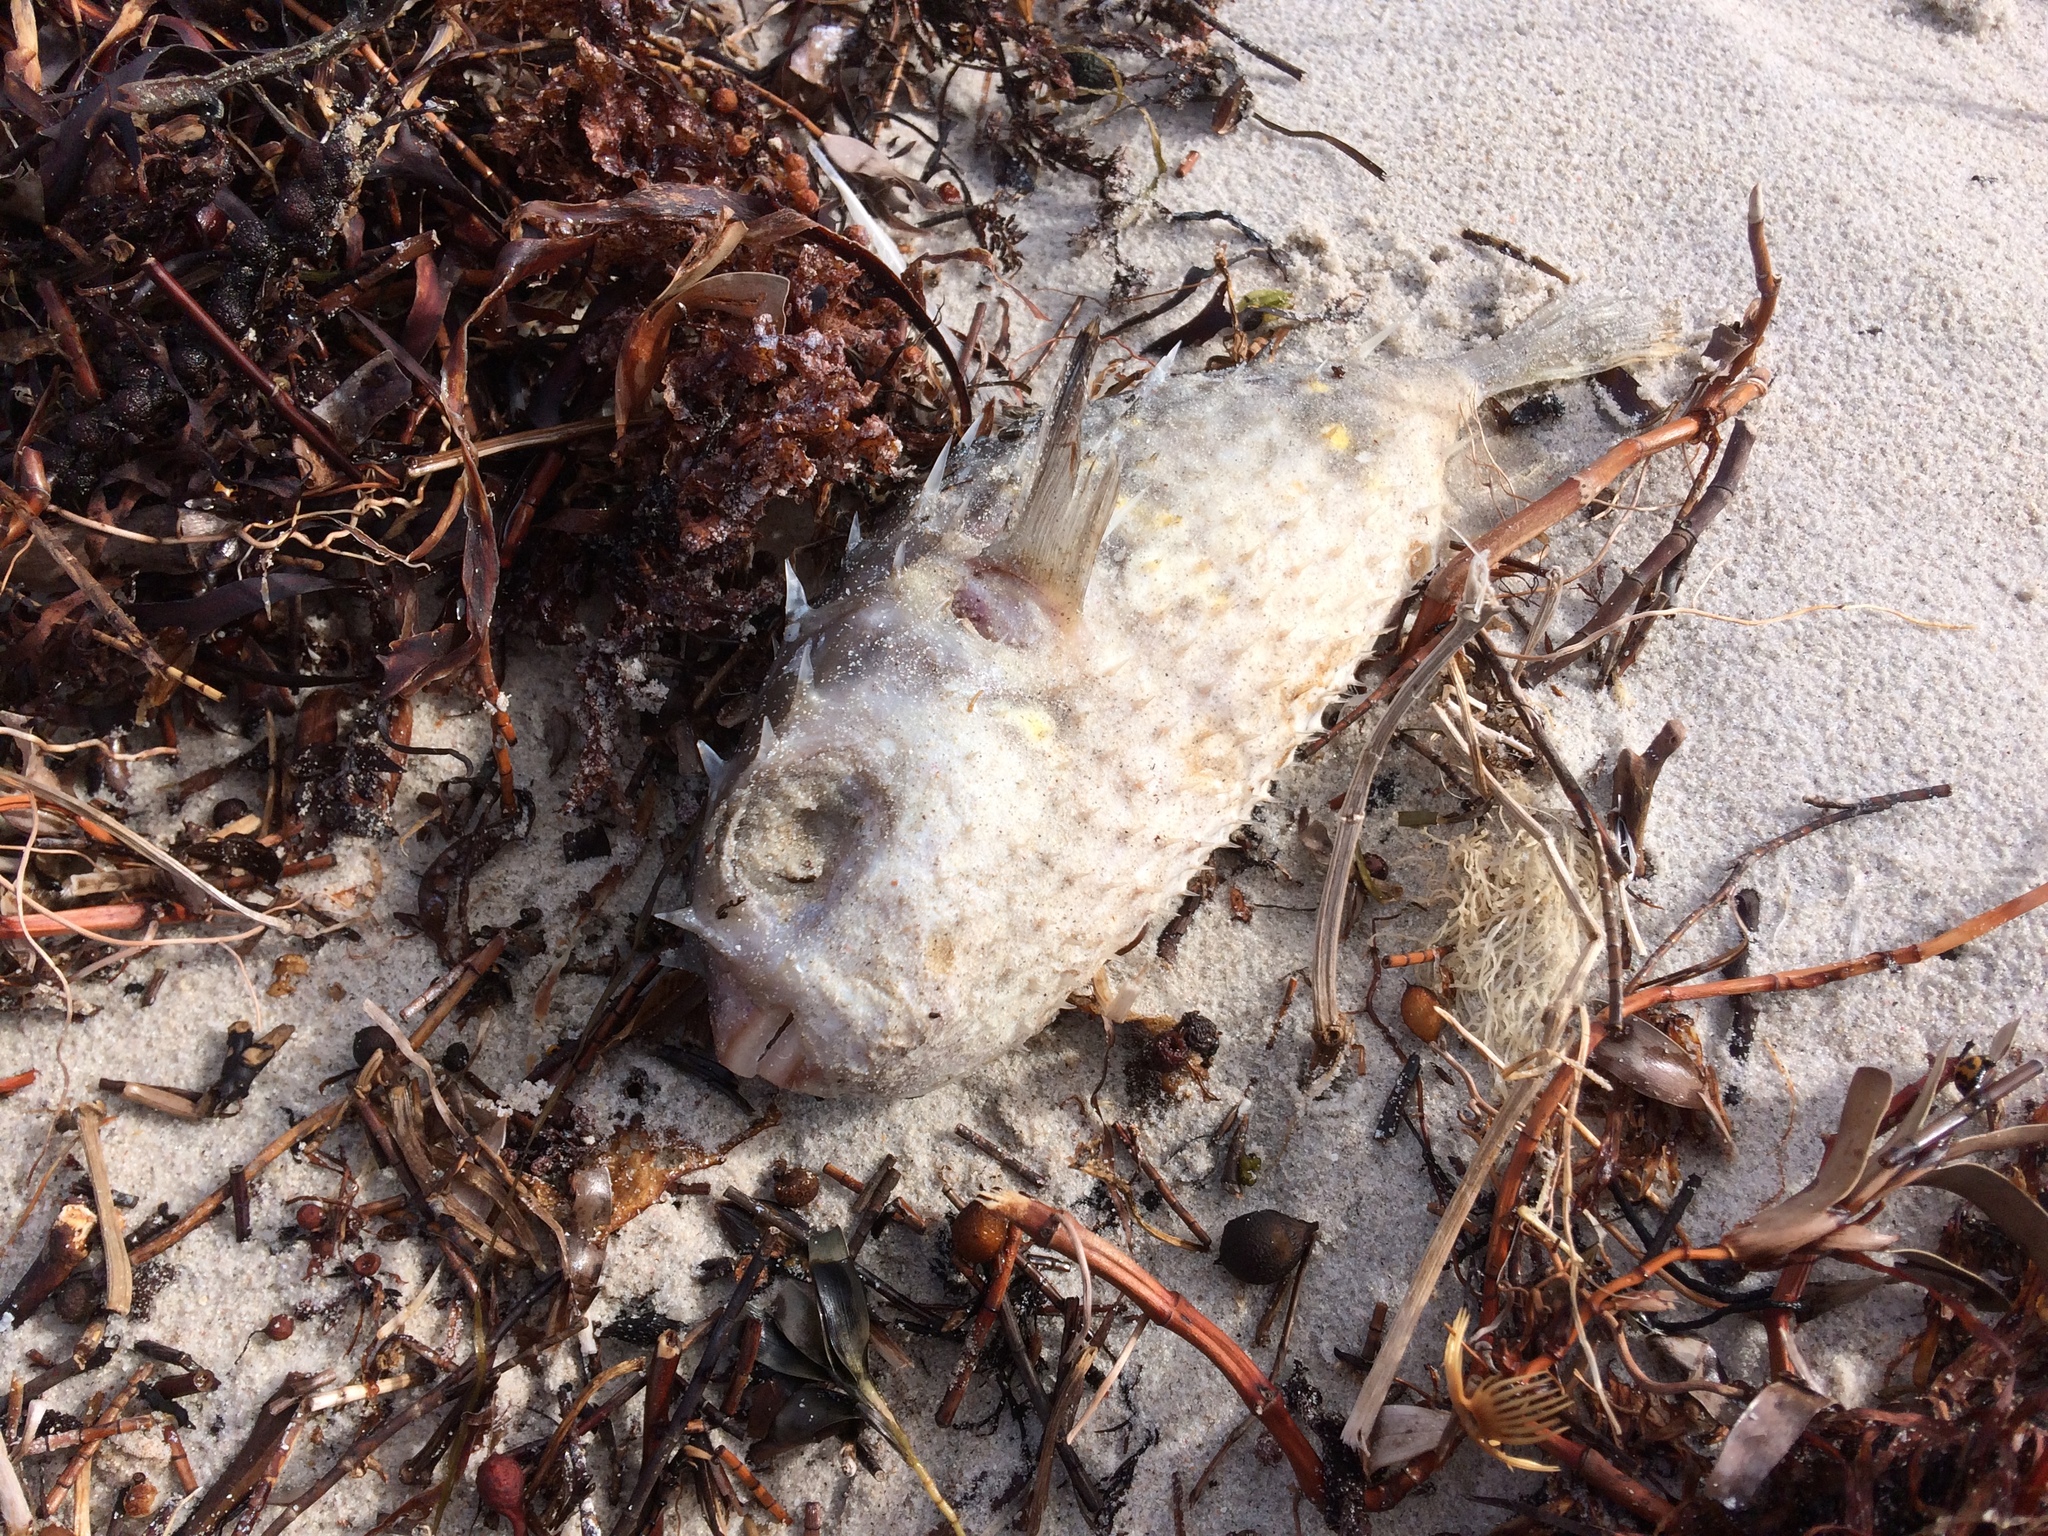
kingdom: Animalia
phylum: Chordata
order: Tetraodontiformes
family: Diodontidae
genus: Allomycterus
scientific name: Allomycterus pilatus
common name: No common name
